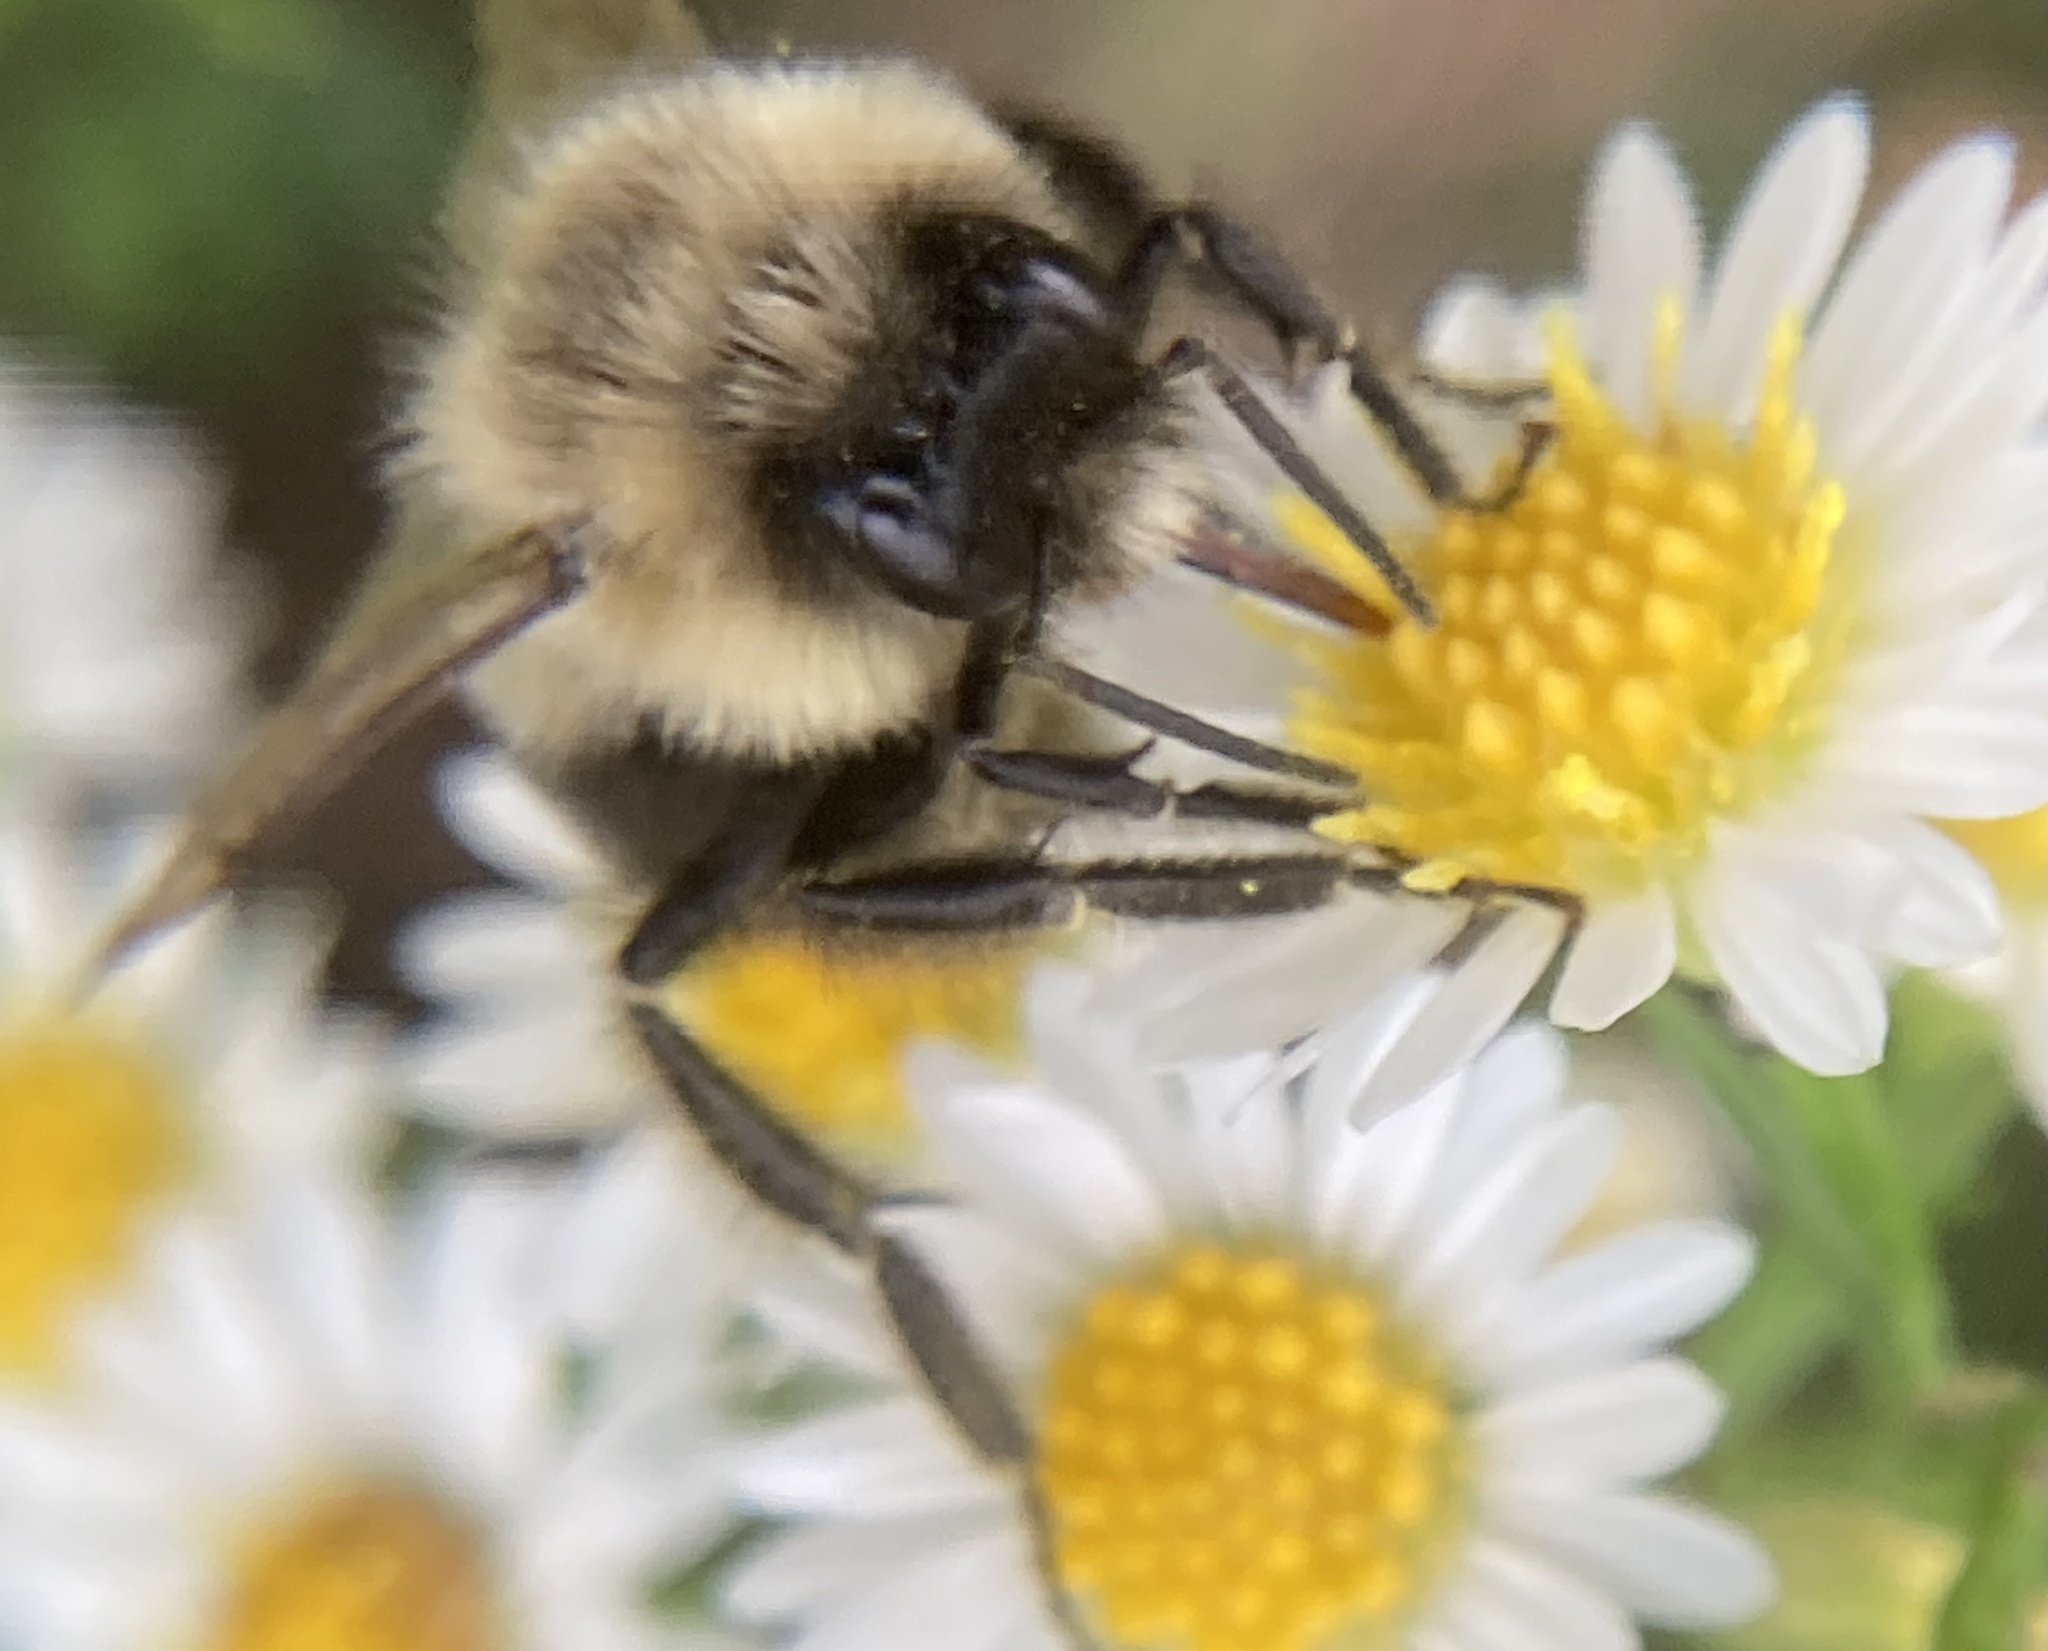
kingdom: Animalia
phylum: Arthropoda
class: Insecta
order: Hymenoptera
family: Apidae
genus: Bombus
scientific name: Bombus impatiens
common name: Common eastern bumble bee
